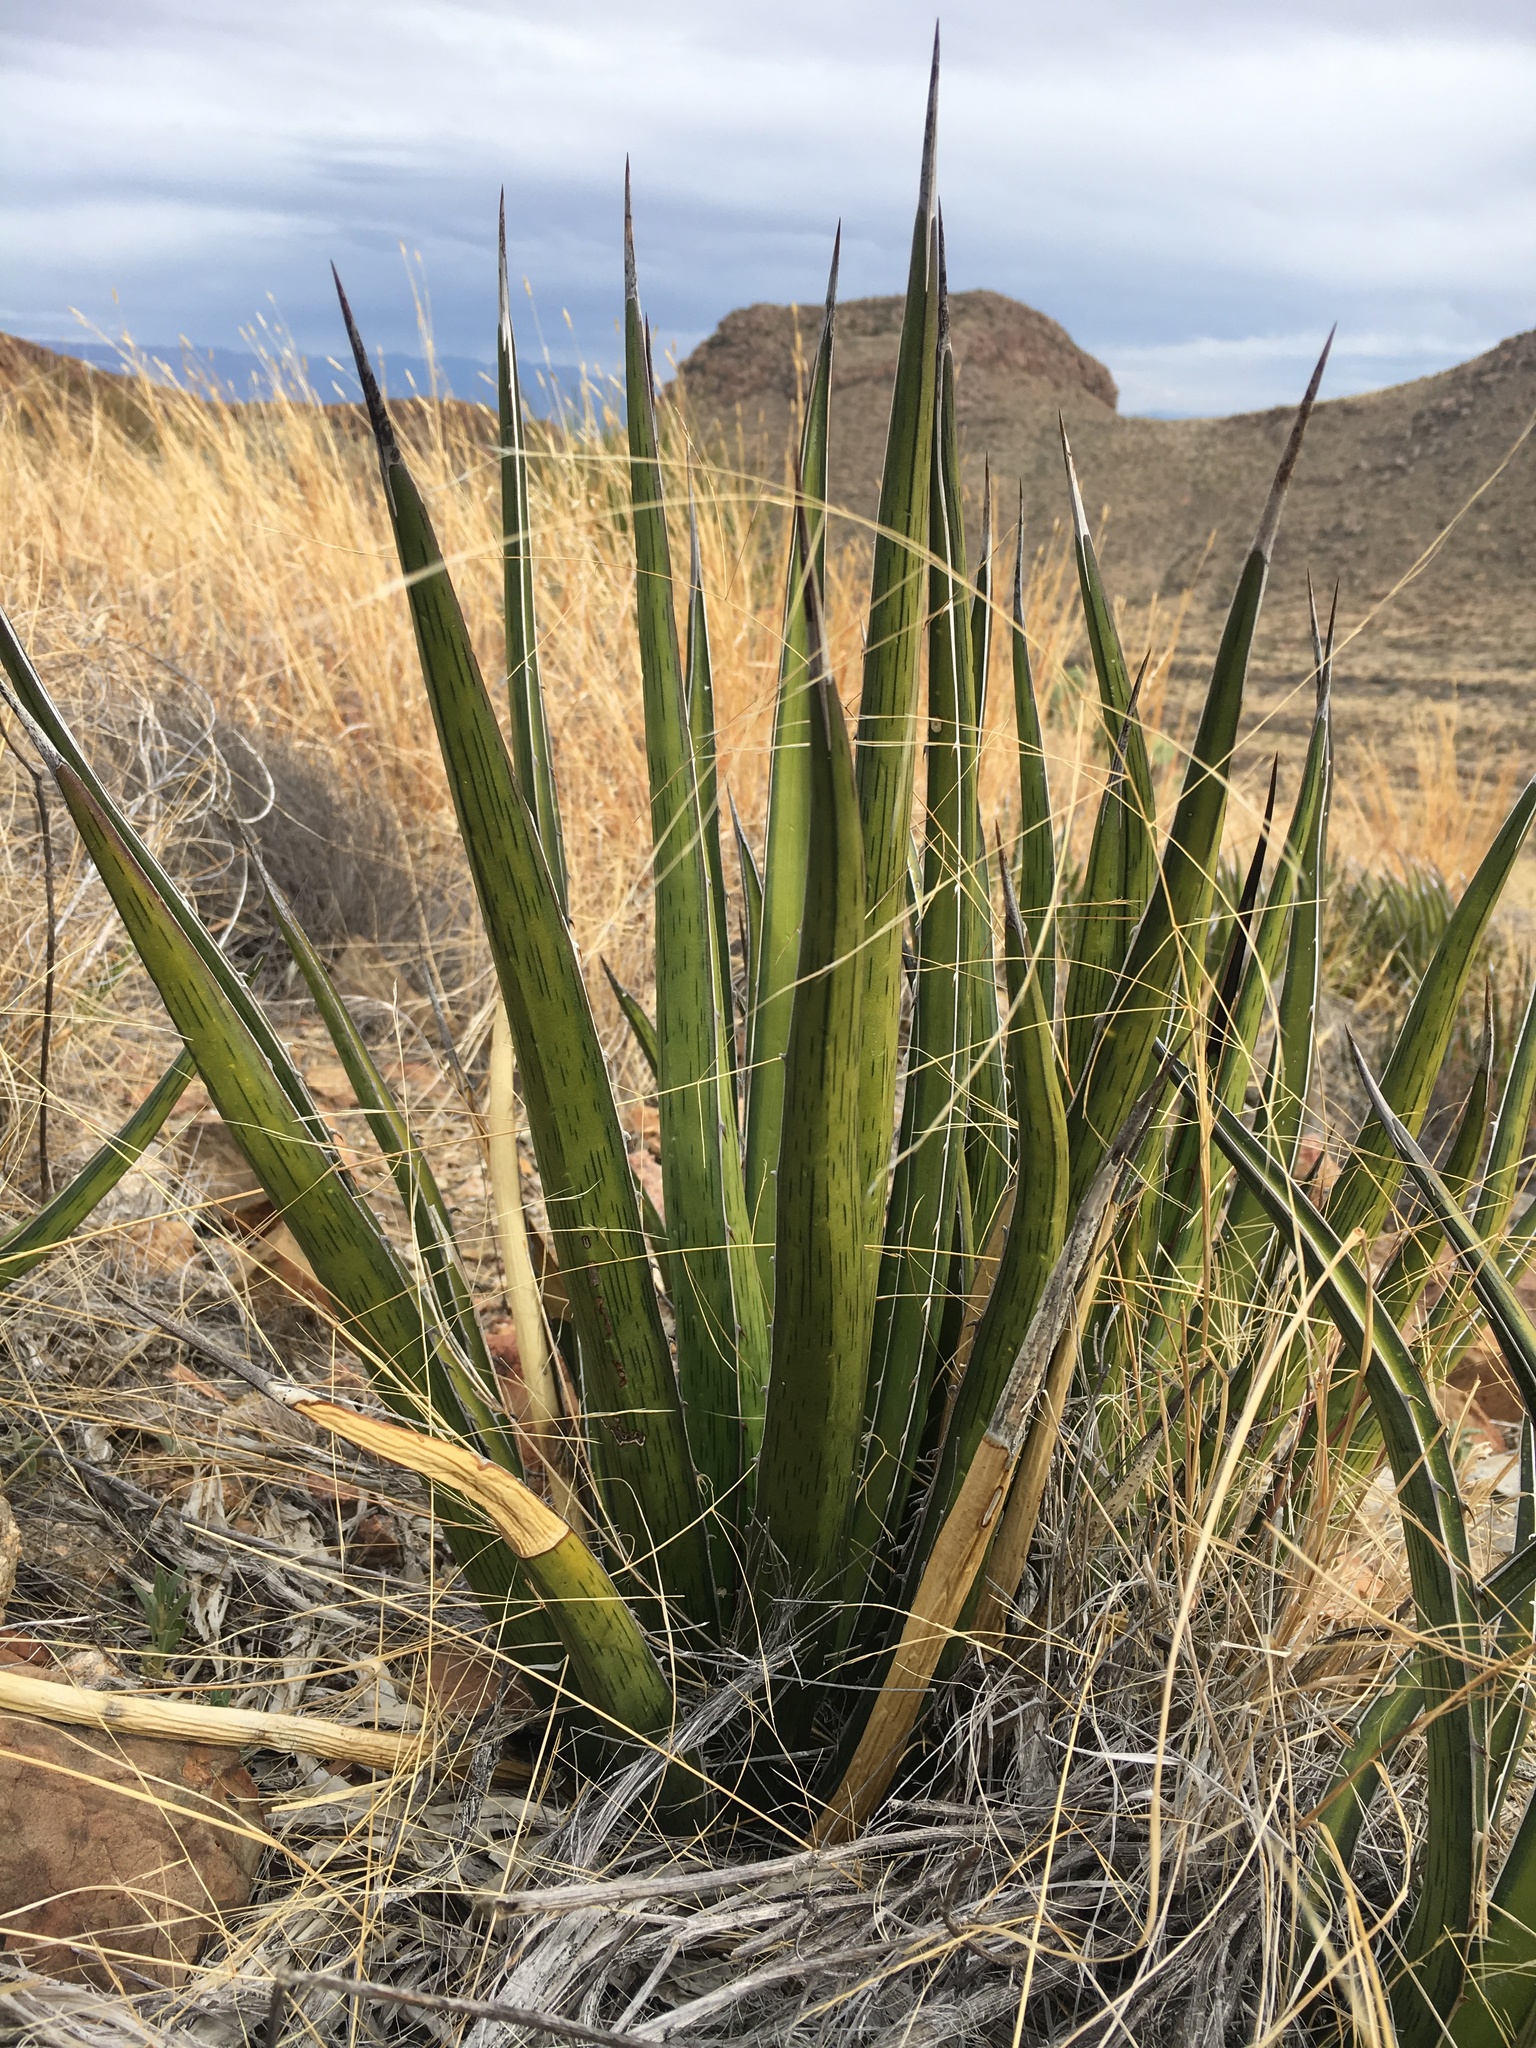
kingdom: Plantae
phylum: Tracheophyta
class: Liliopsida
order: Asparagales
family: Asparagaceae
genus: Agave
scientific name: Agave lechuguilla
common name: Lecheguilla agave
